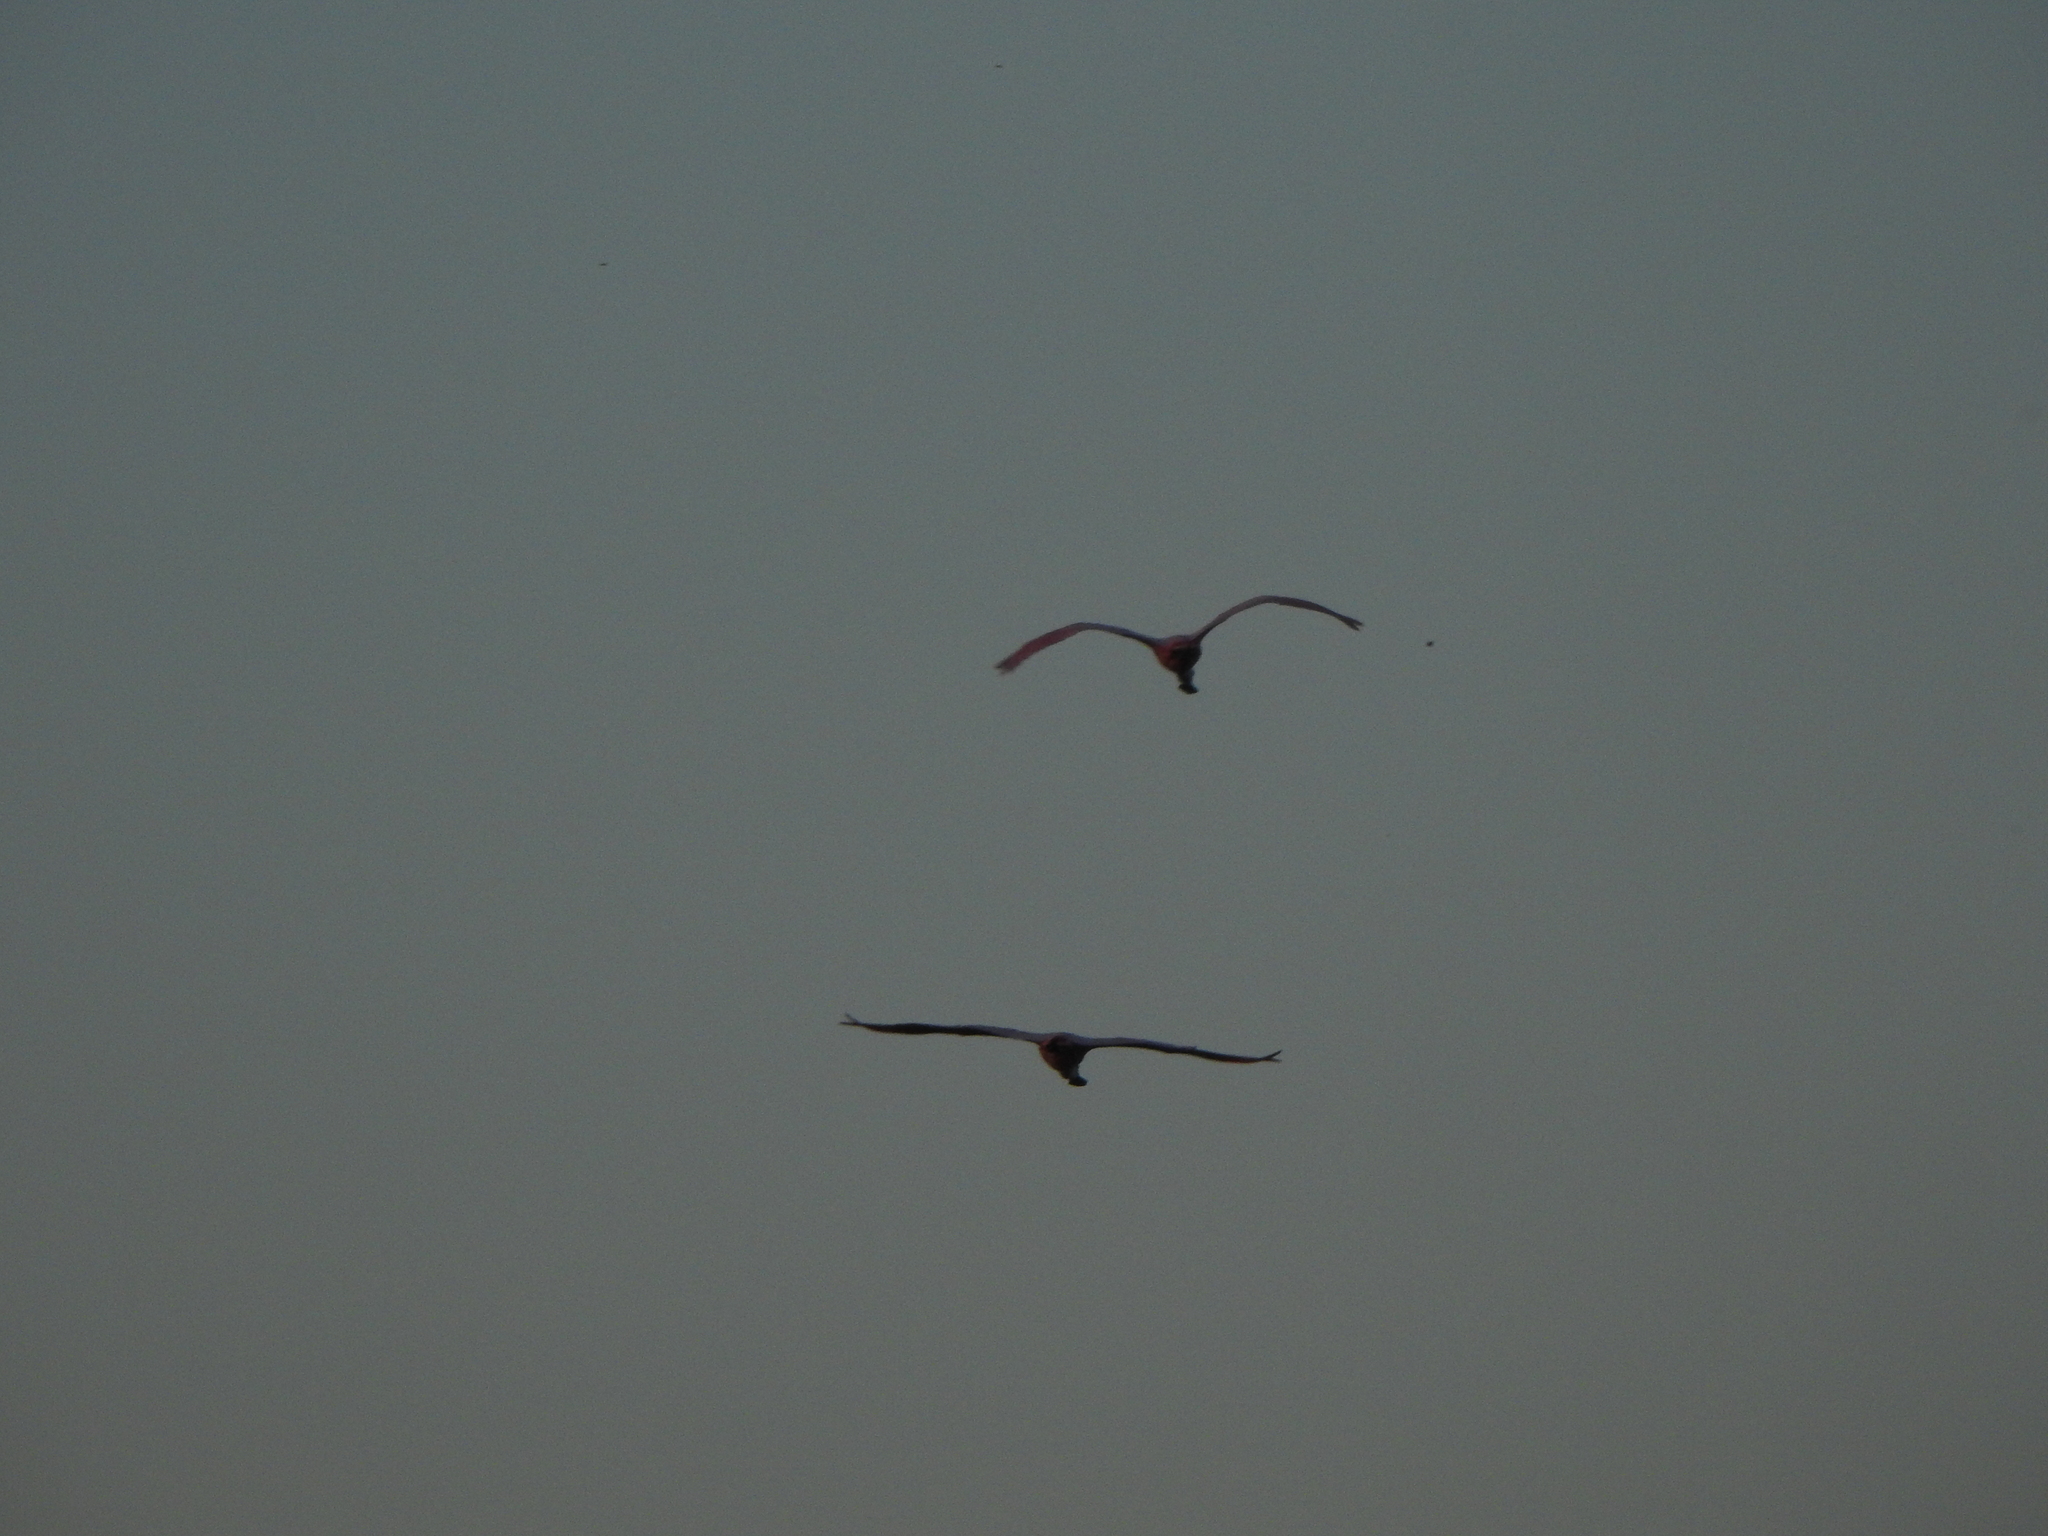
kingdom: Animalia
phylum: Chordata
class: Aves
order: Pelecaniformes
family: Threskiornithidae
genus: Platalea
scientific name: Platalea ajaja
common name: Roseate spoonbill
